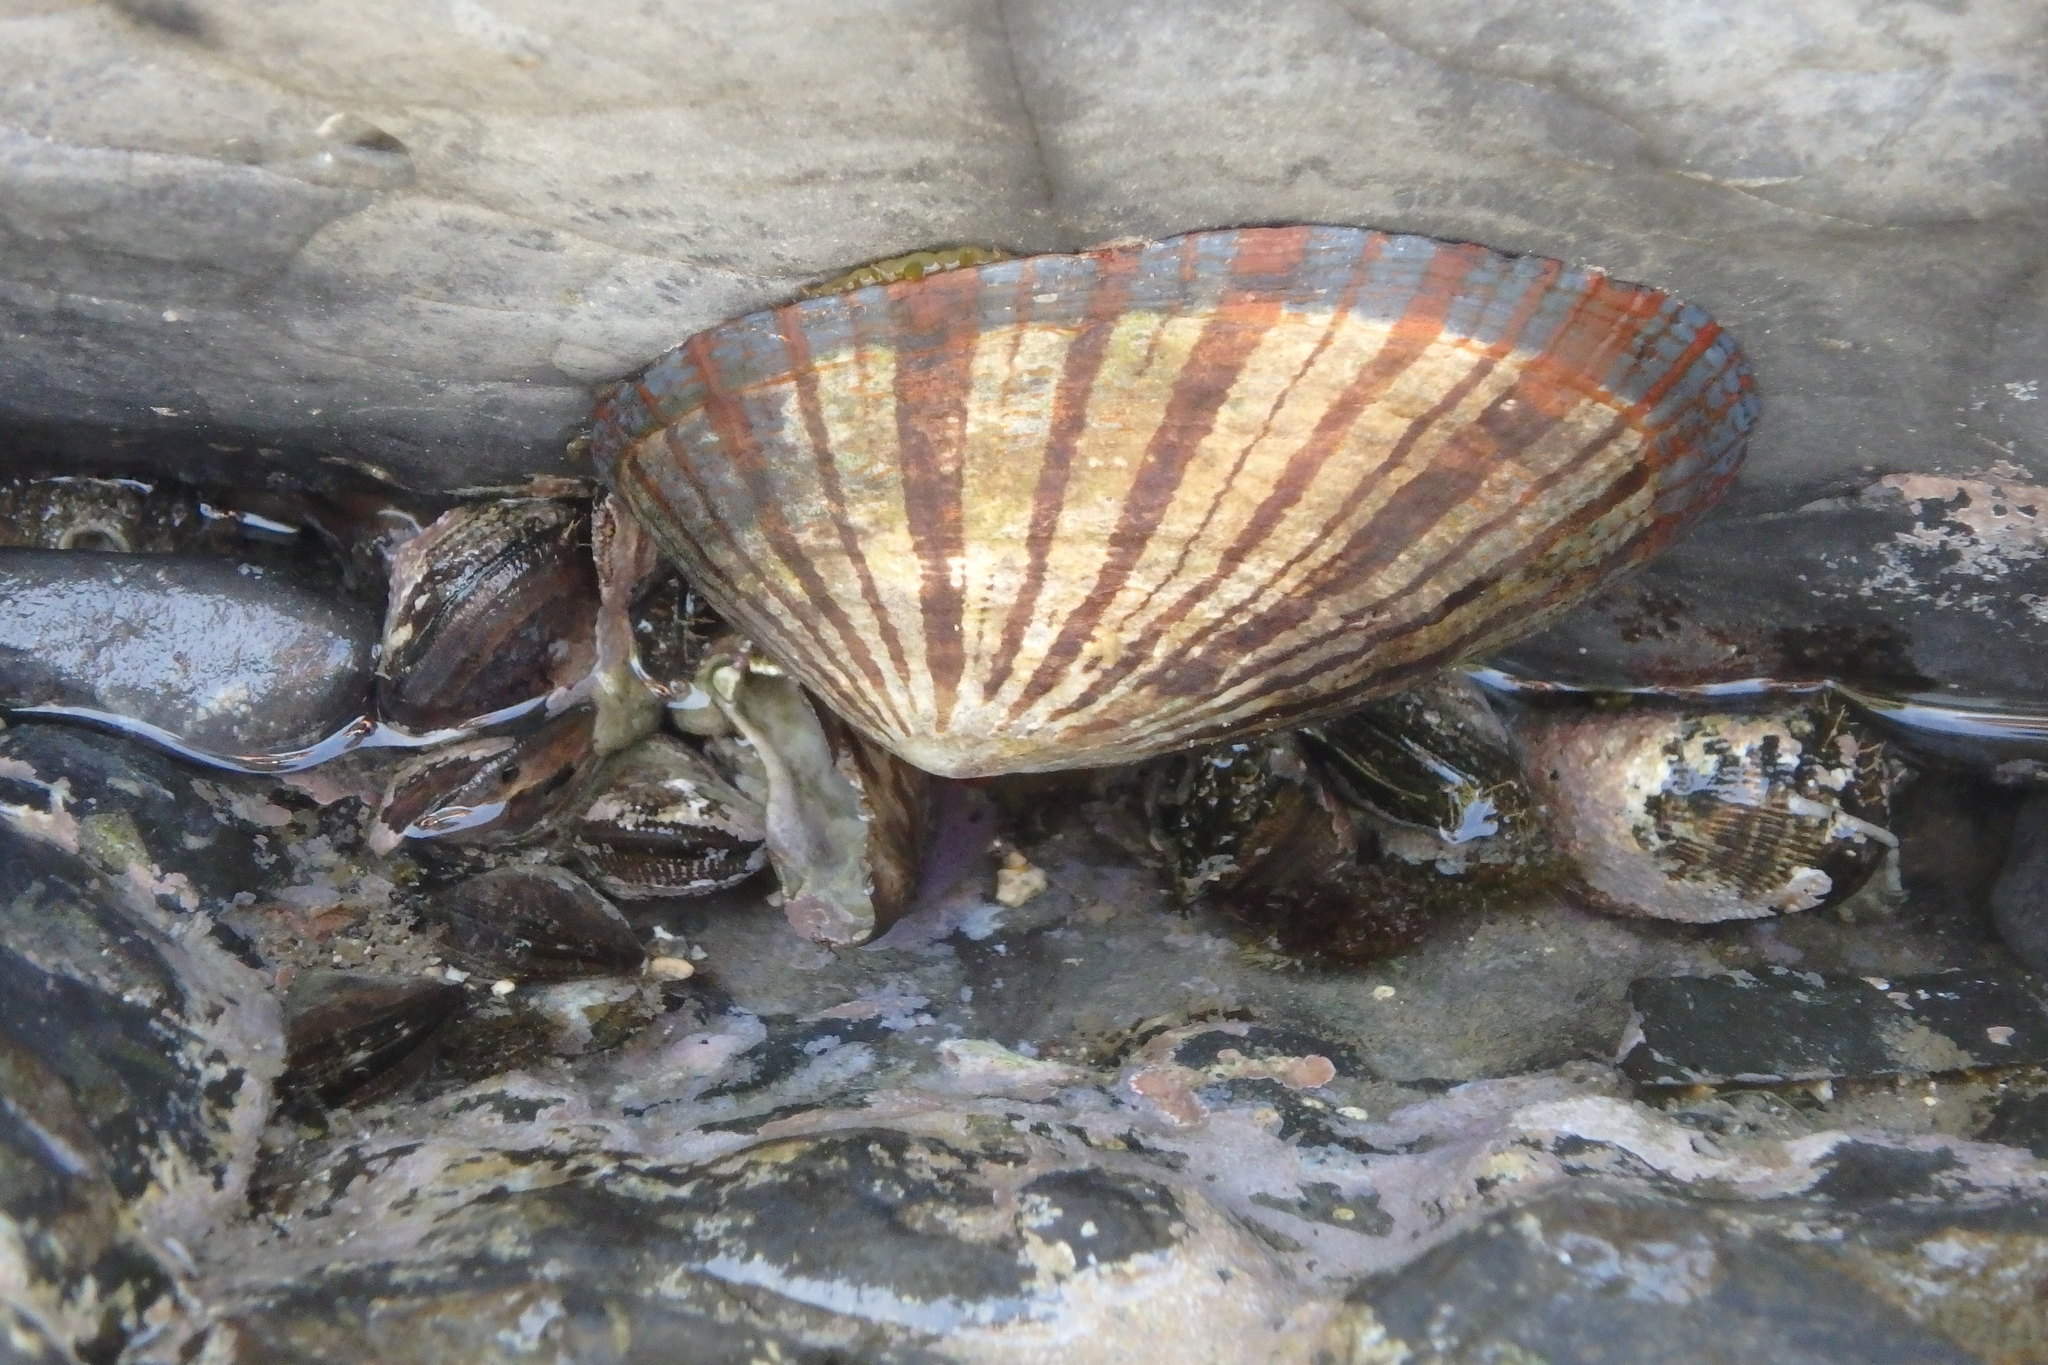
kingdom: Animalia
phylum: Mollusca
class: Gastropoda
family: Nacellidae
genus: Cellana
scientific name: Cellana nigrolineata
